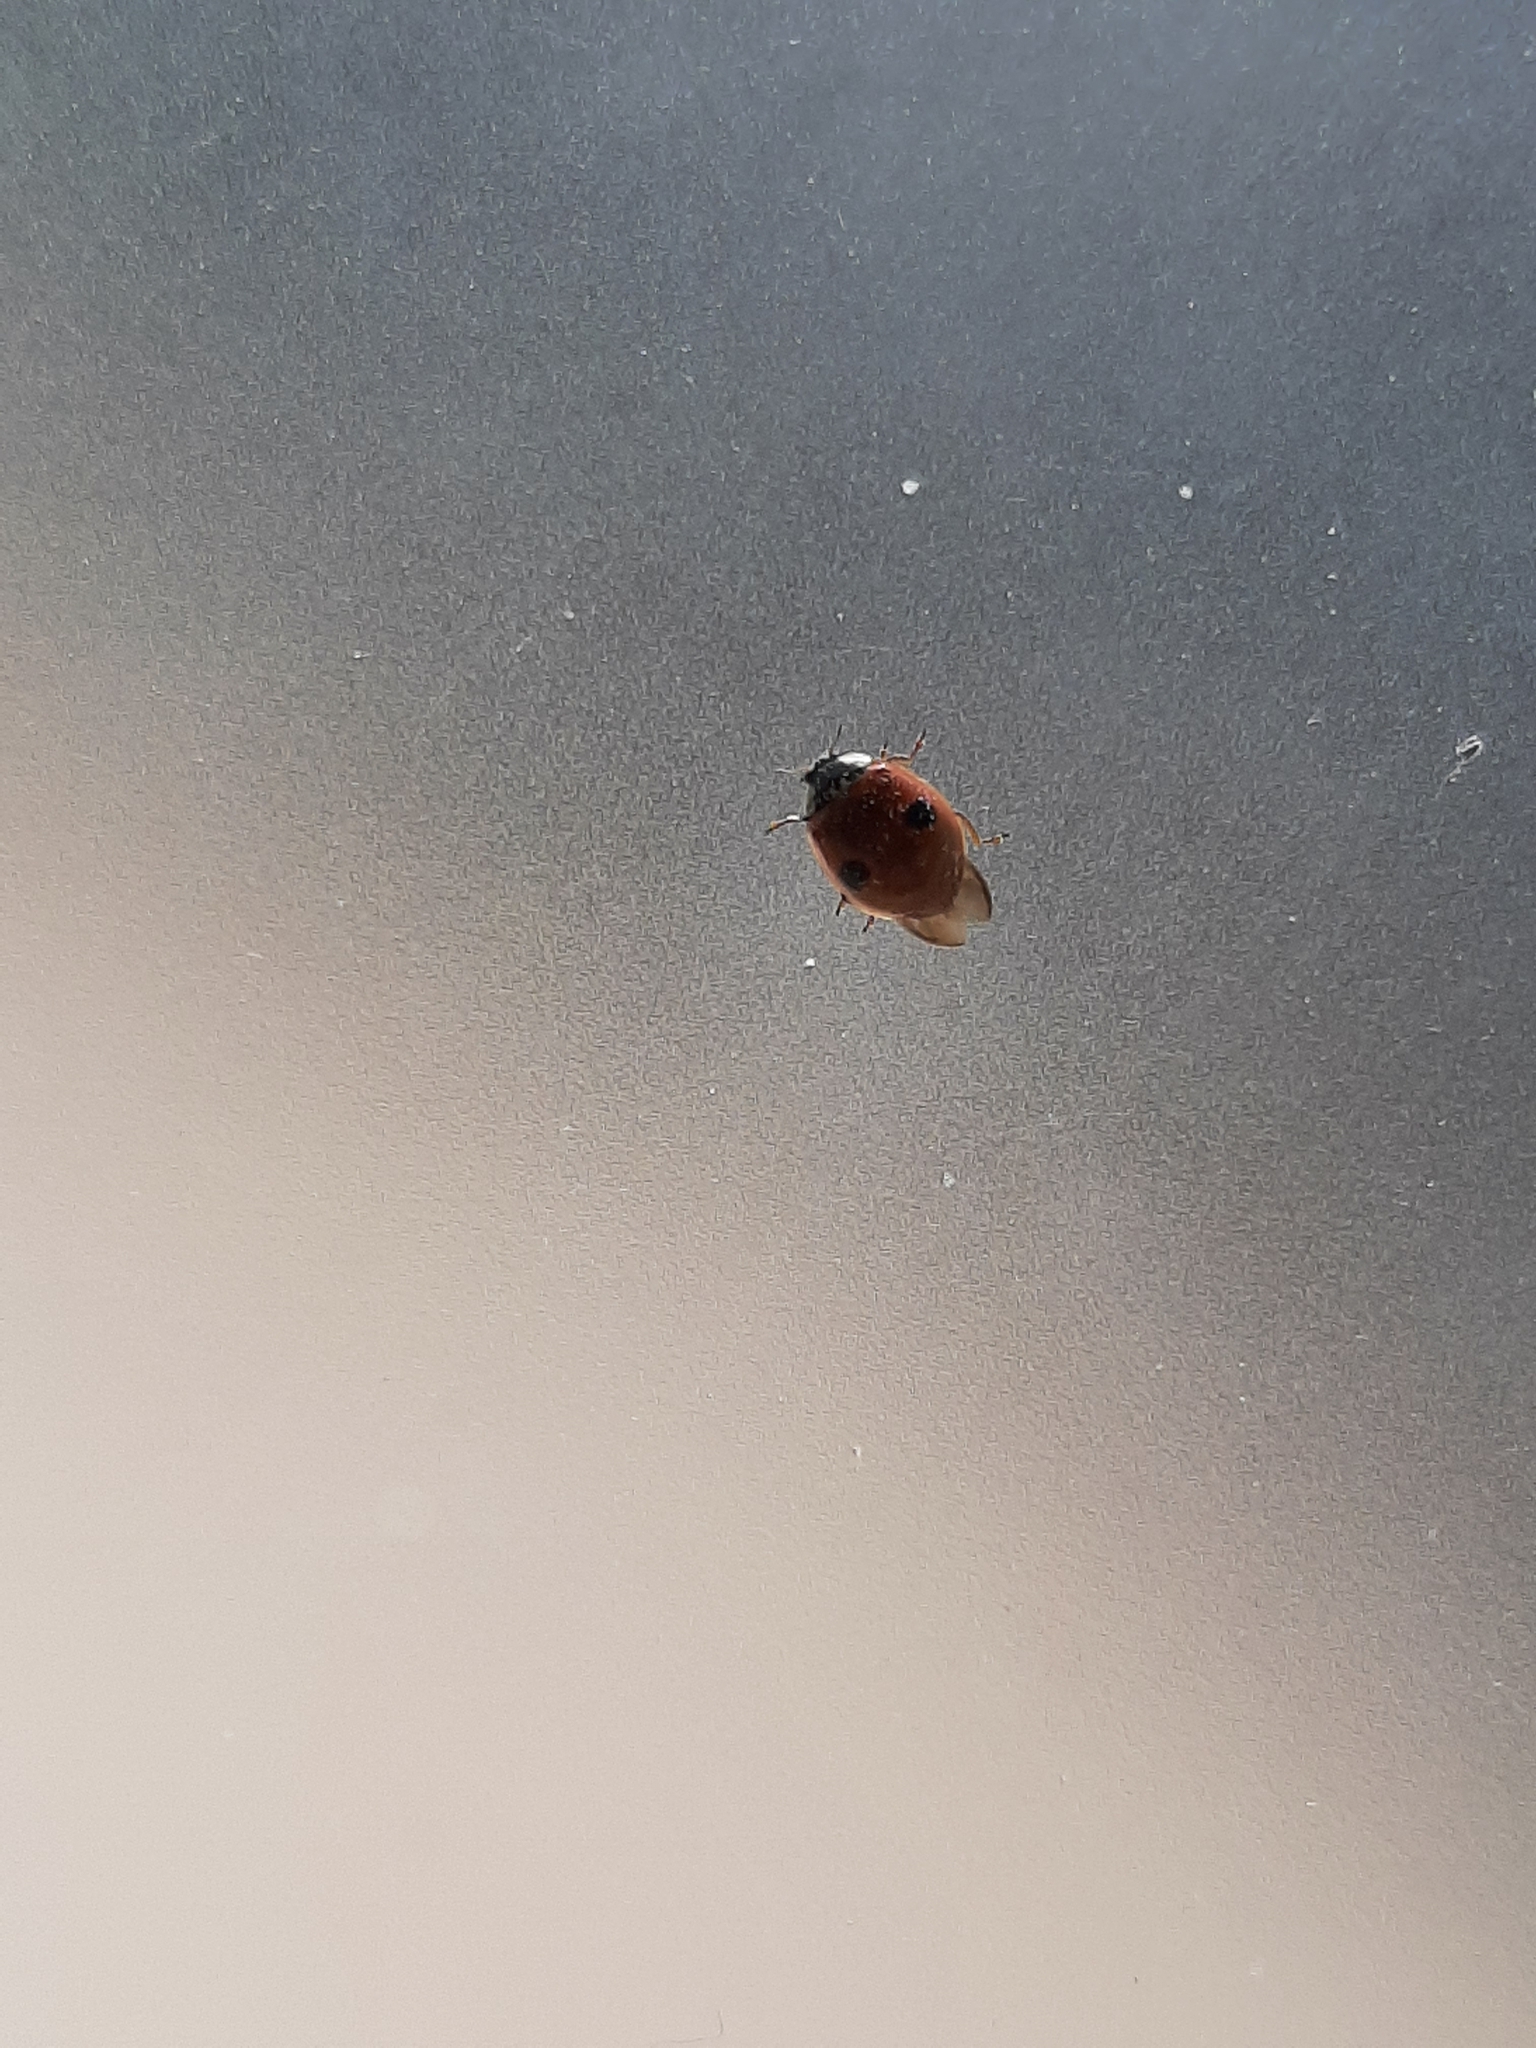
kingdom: Animalia
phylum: Arthropoda
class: Insecta
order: Coleoptera
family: Coccinellidae
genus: Adalia
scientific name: Adalia bipunctata
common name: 2-spot ladybird
